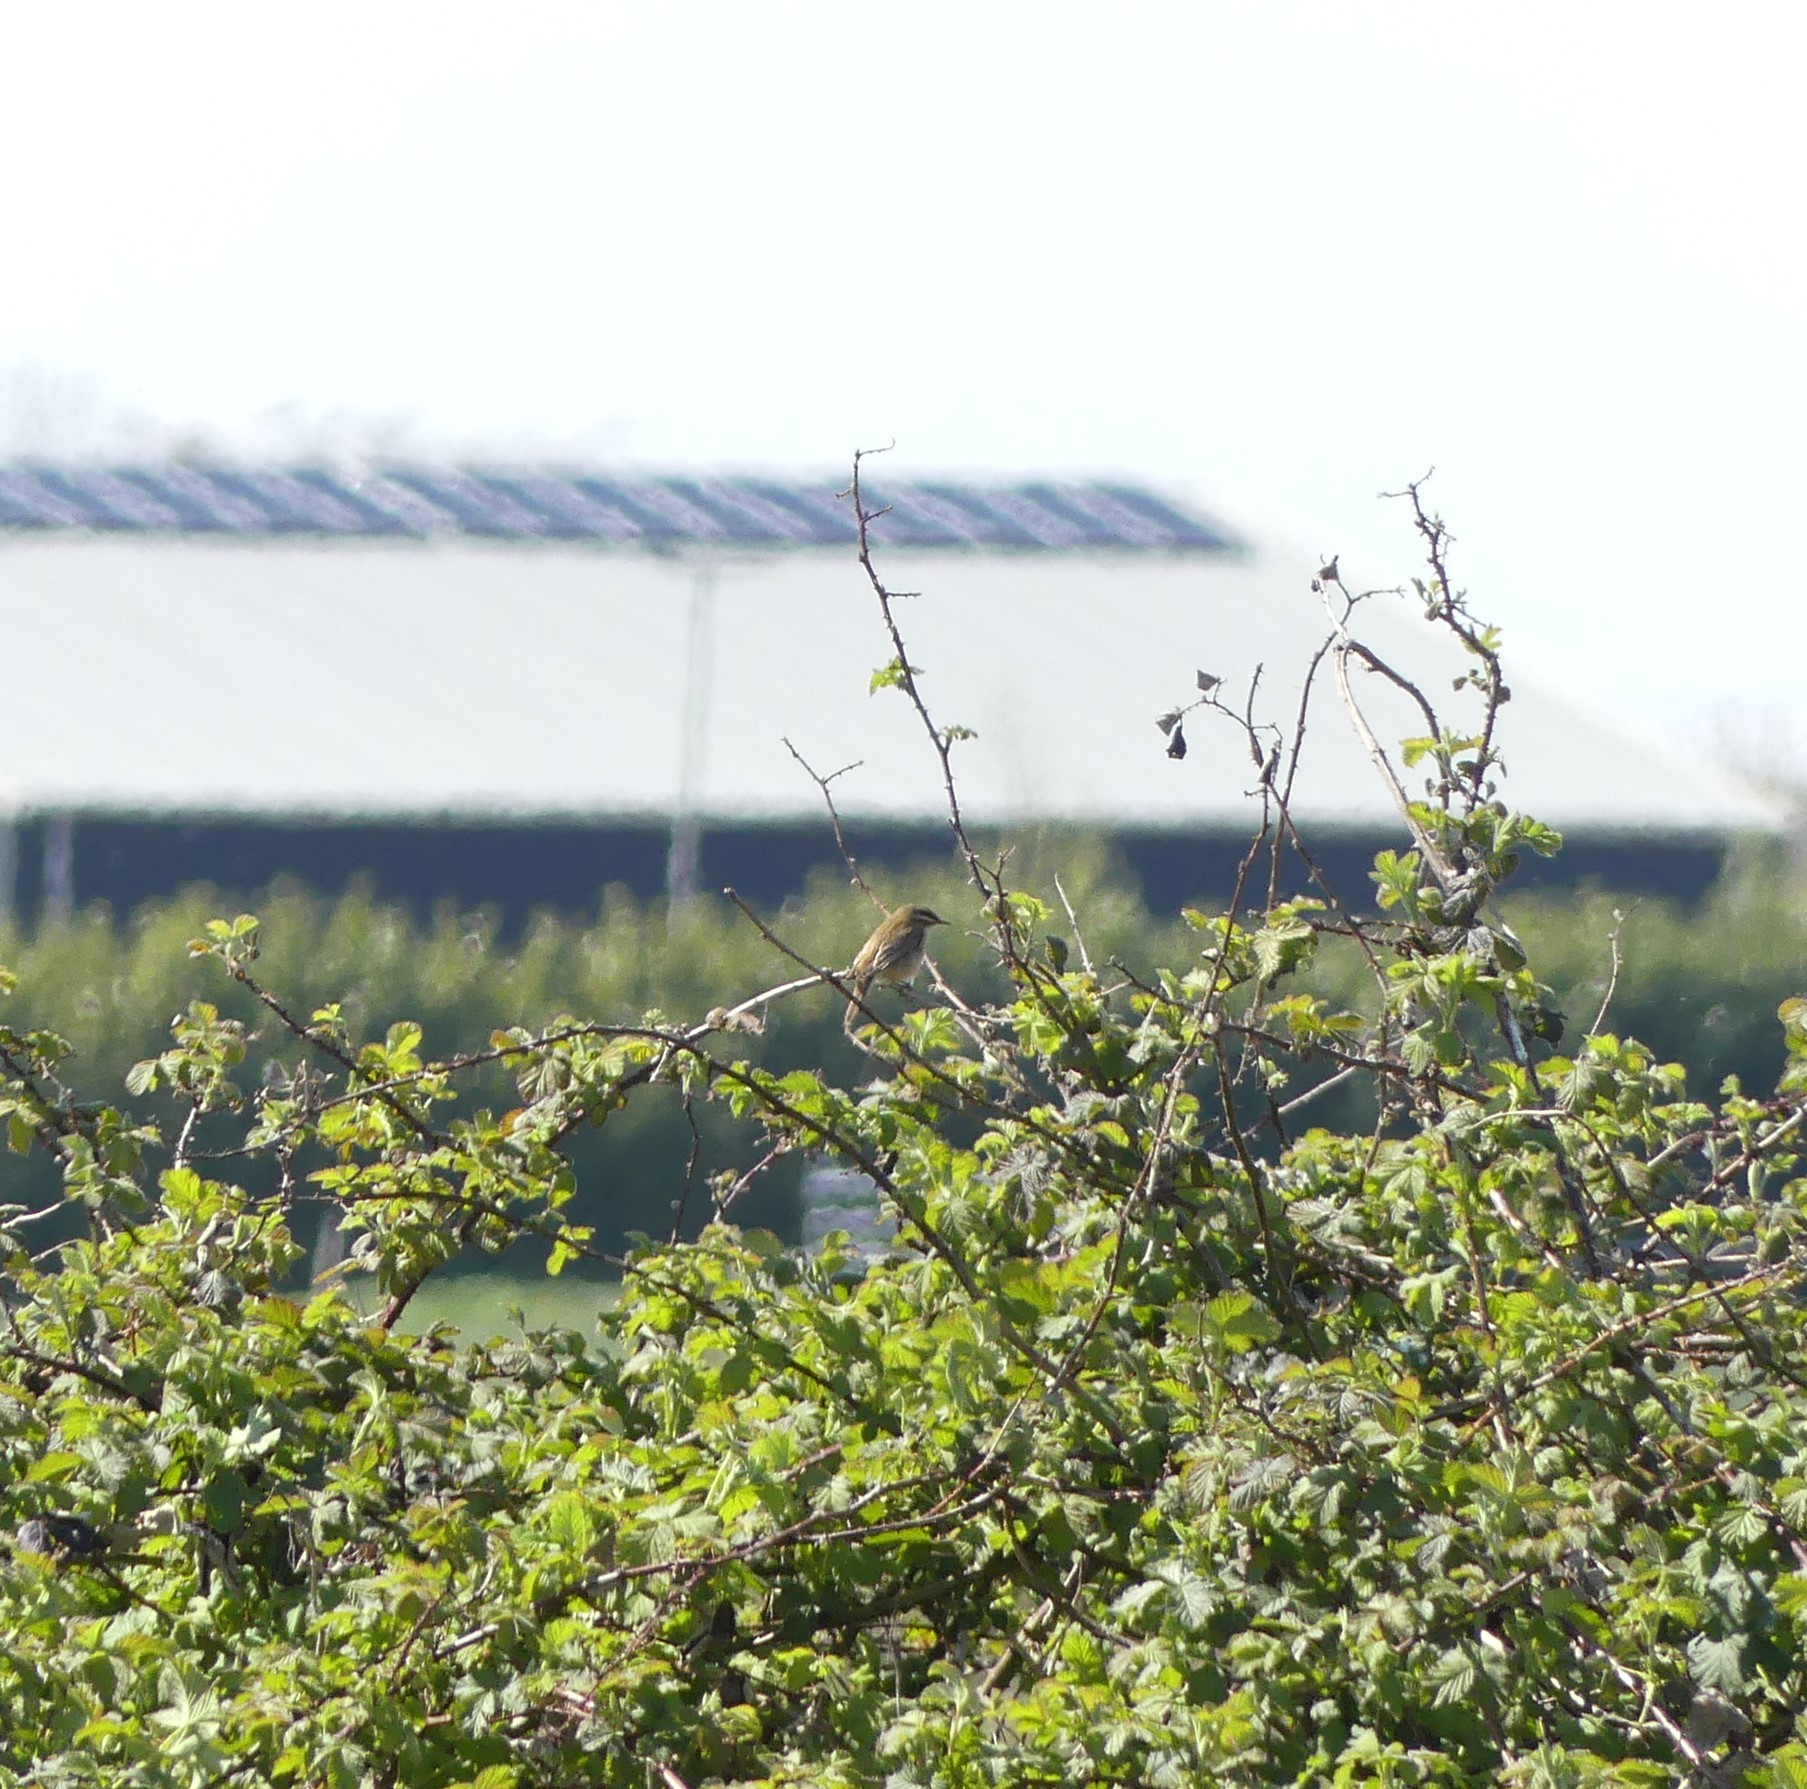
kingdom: Animalia
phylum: Chordata
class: Aves
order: Passeriformes
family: Acrocephalidae
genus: Acrocephalus
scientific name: Acrocephalus schoenobaenus
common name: Sedge warbler
